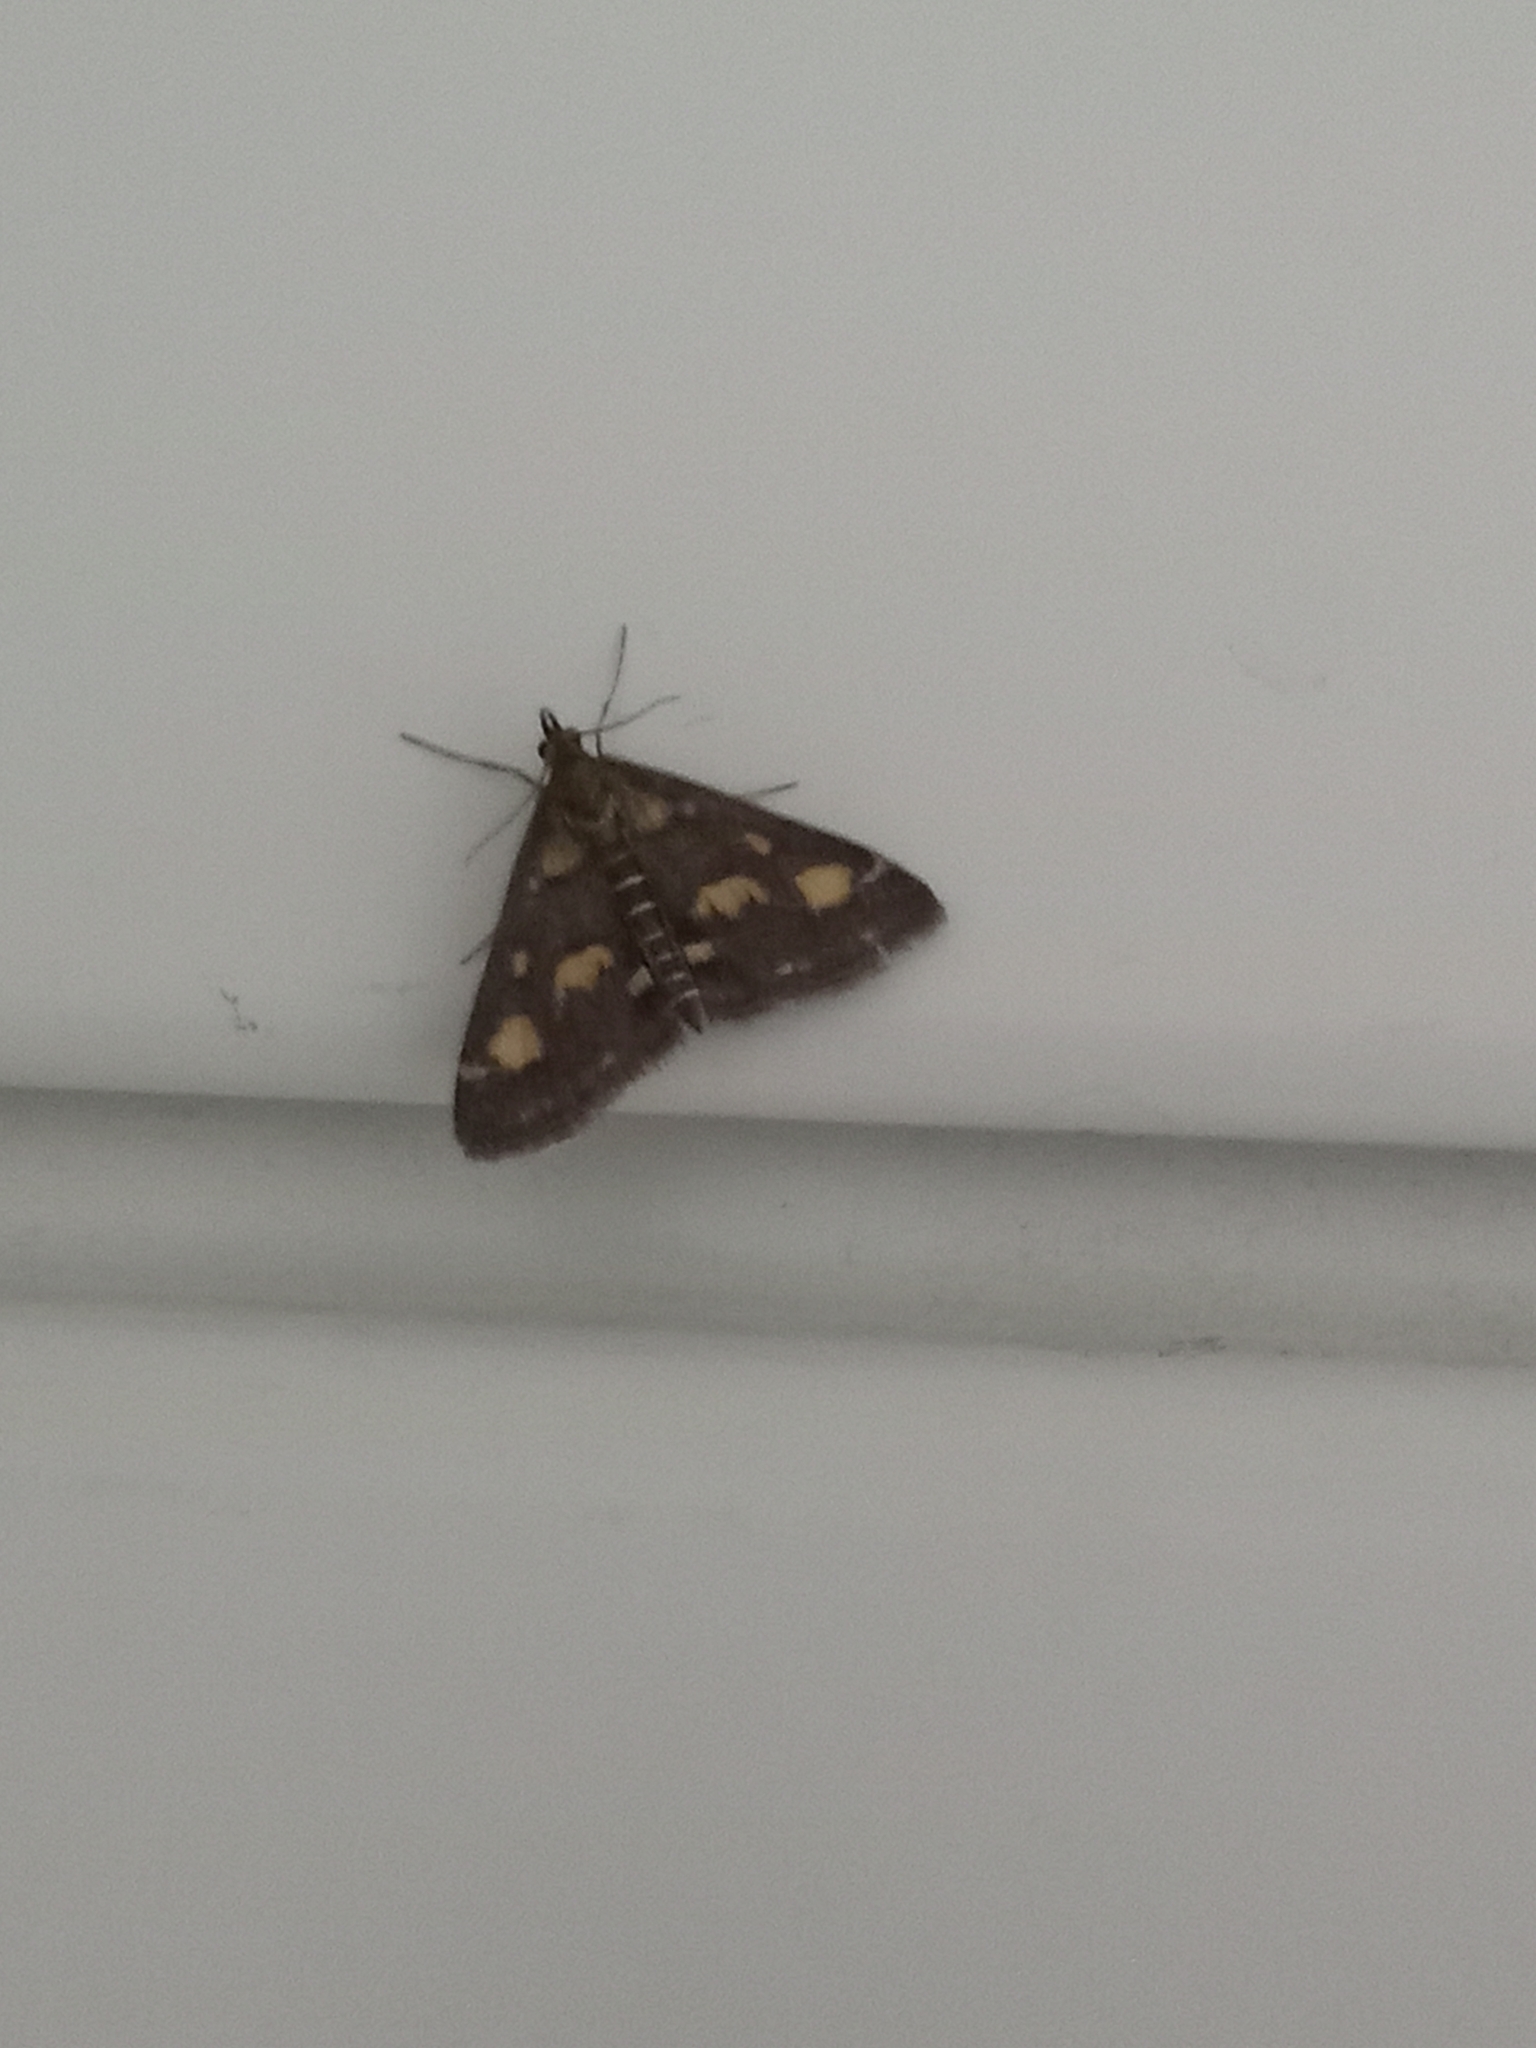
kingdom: Animalia
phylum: Arthropoda
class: Insecta
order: Lepidoptera
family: Crambidae
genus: Pyrausta
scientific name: Pyrausta purpuralis
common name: Common purple & gold
